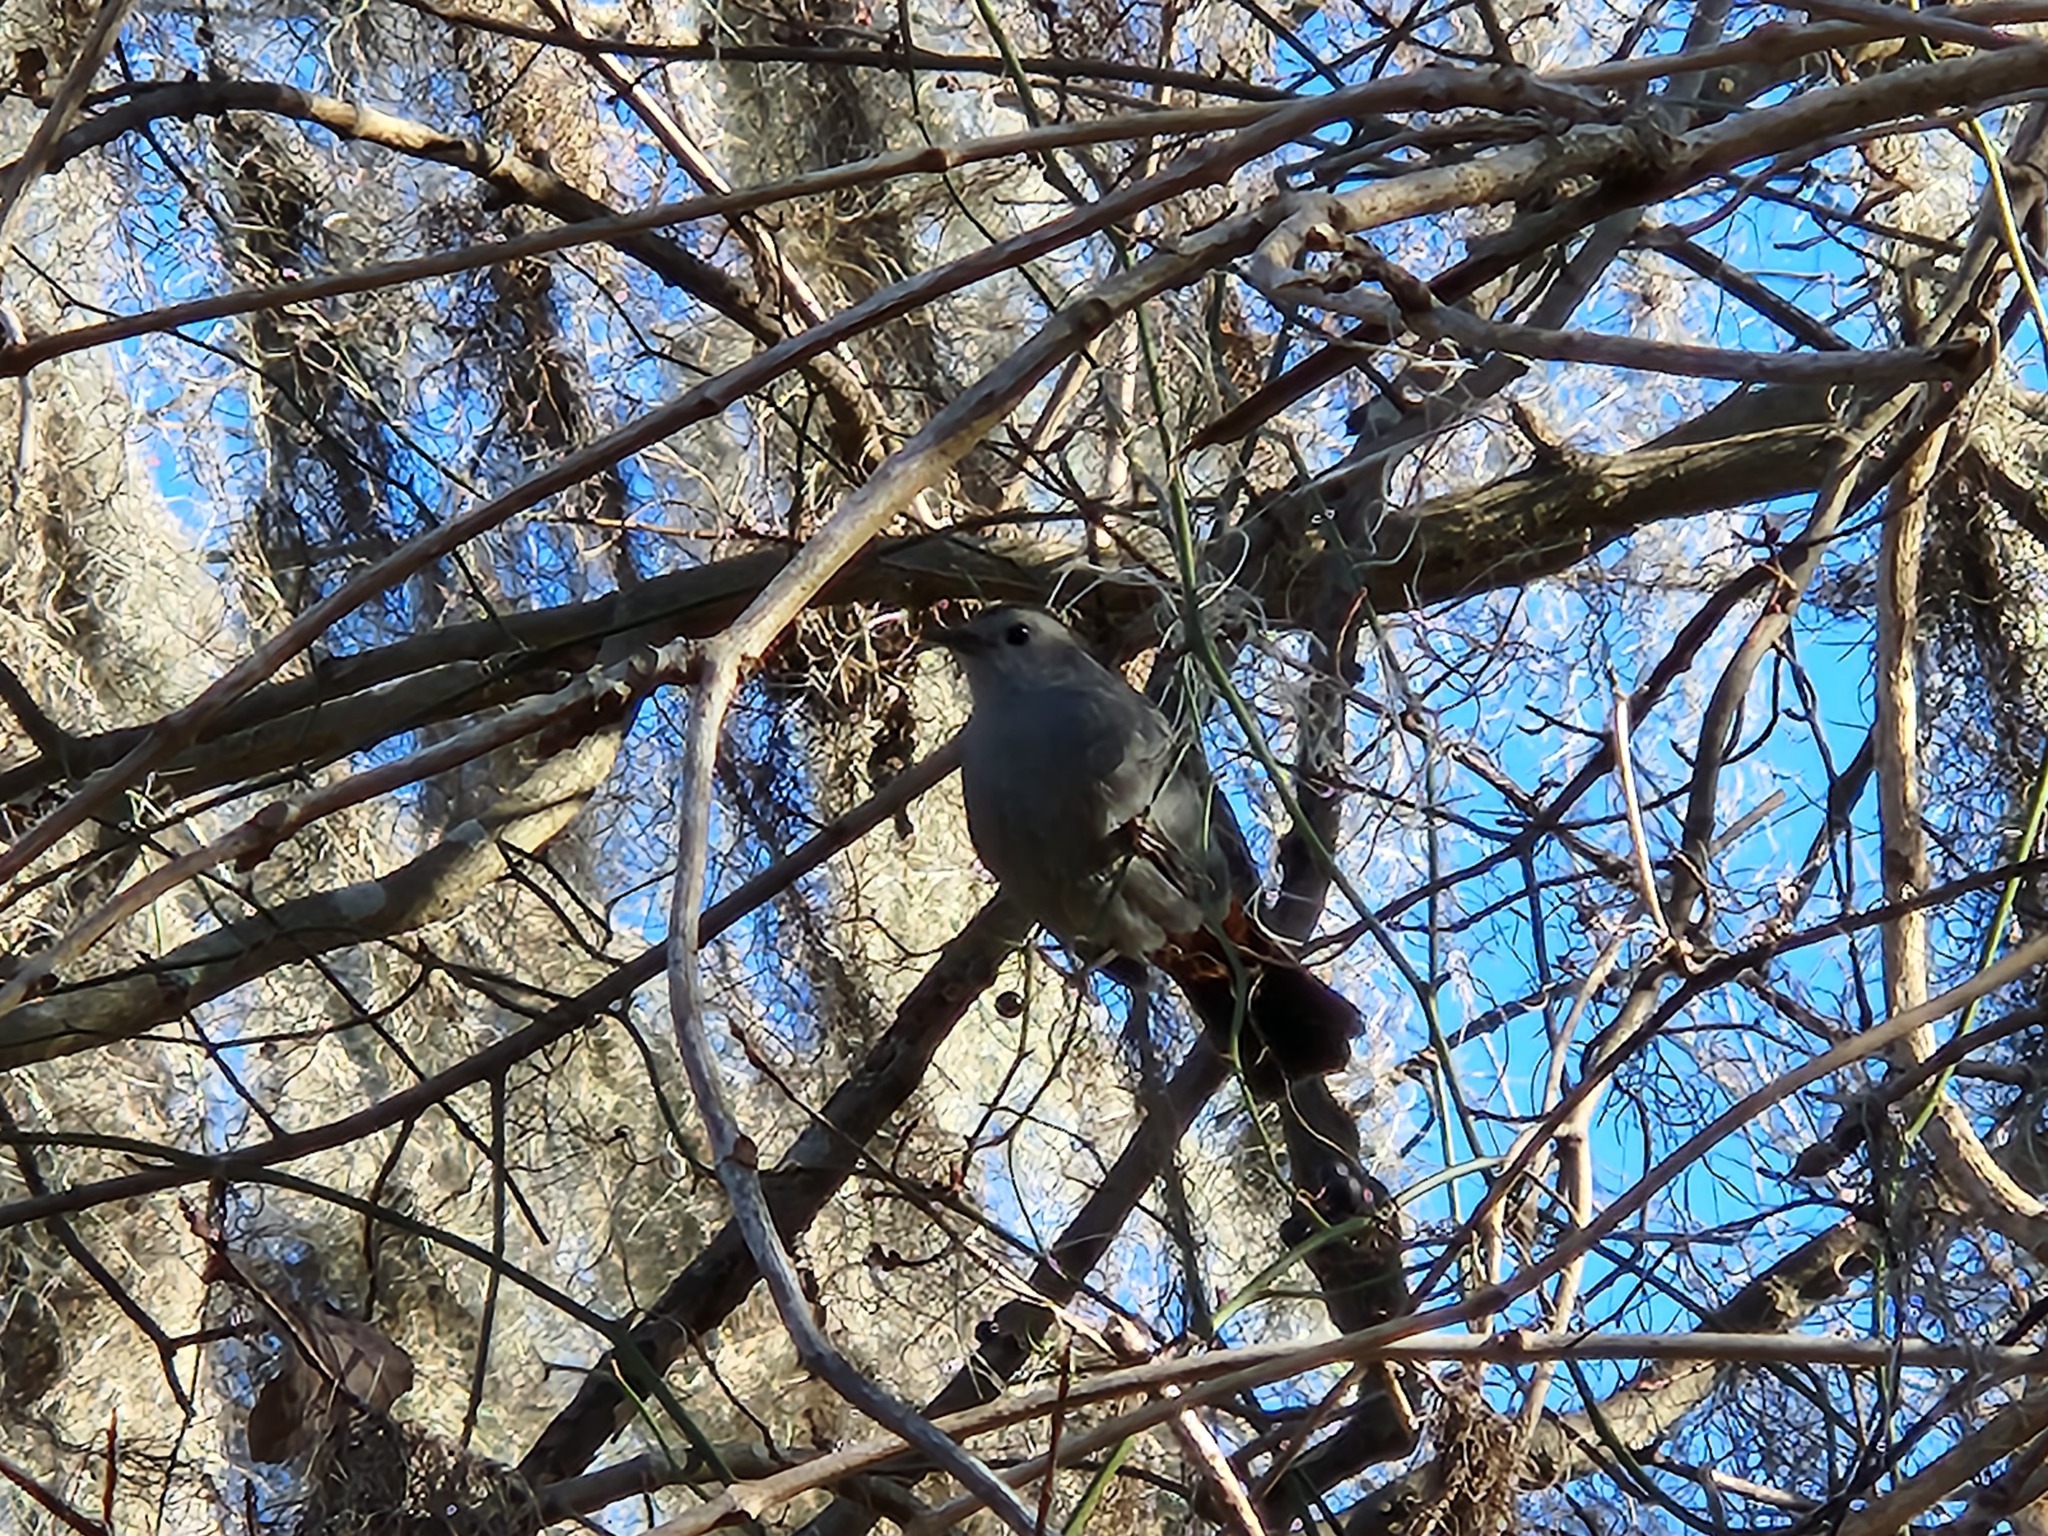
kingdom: Animalia
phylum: Chordata
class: Aves
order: Passeriformes
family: Mimidae
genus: Dumetella
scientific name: Dumetella carolinensis
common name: Gray catbird
